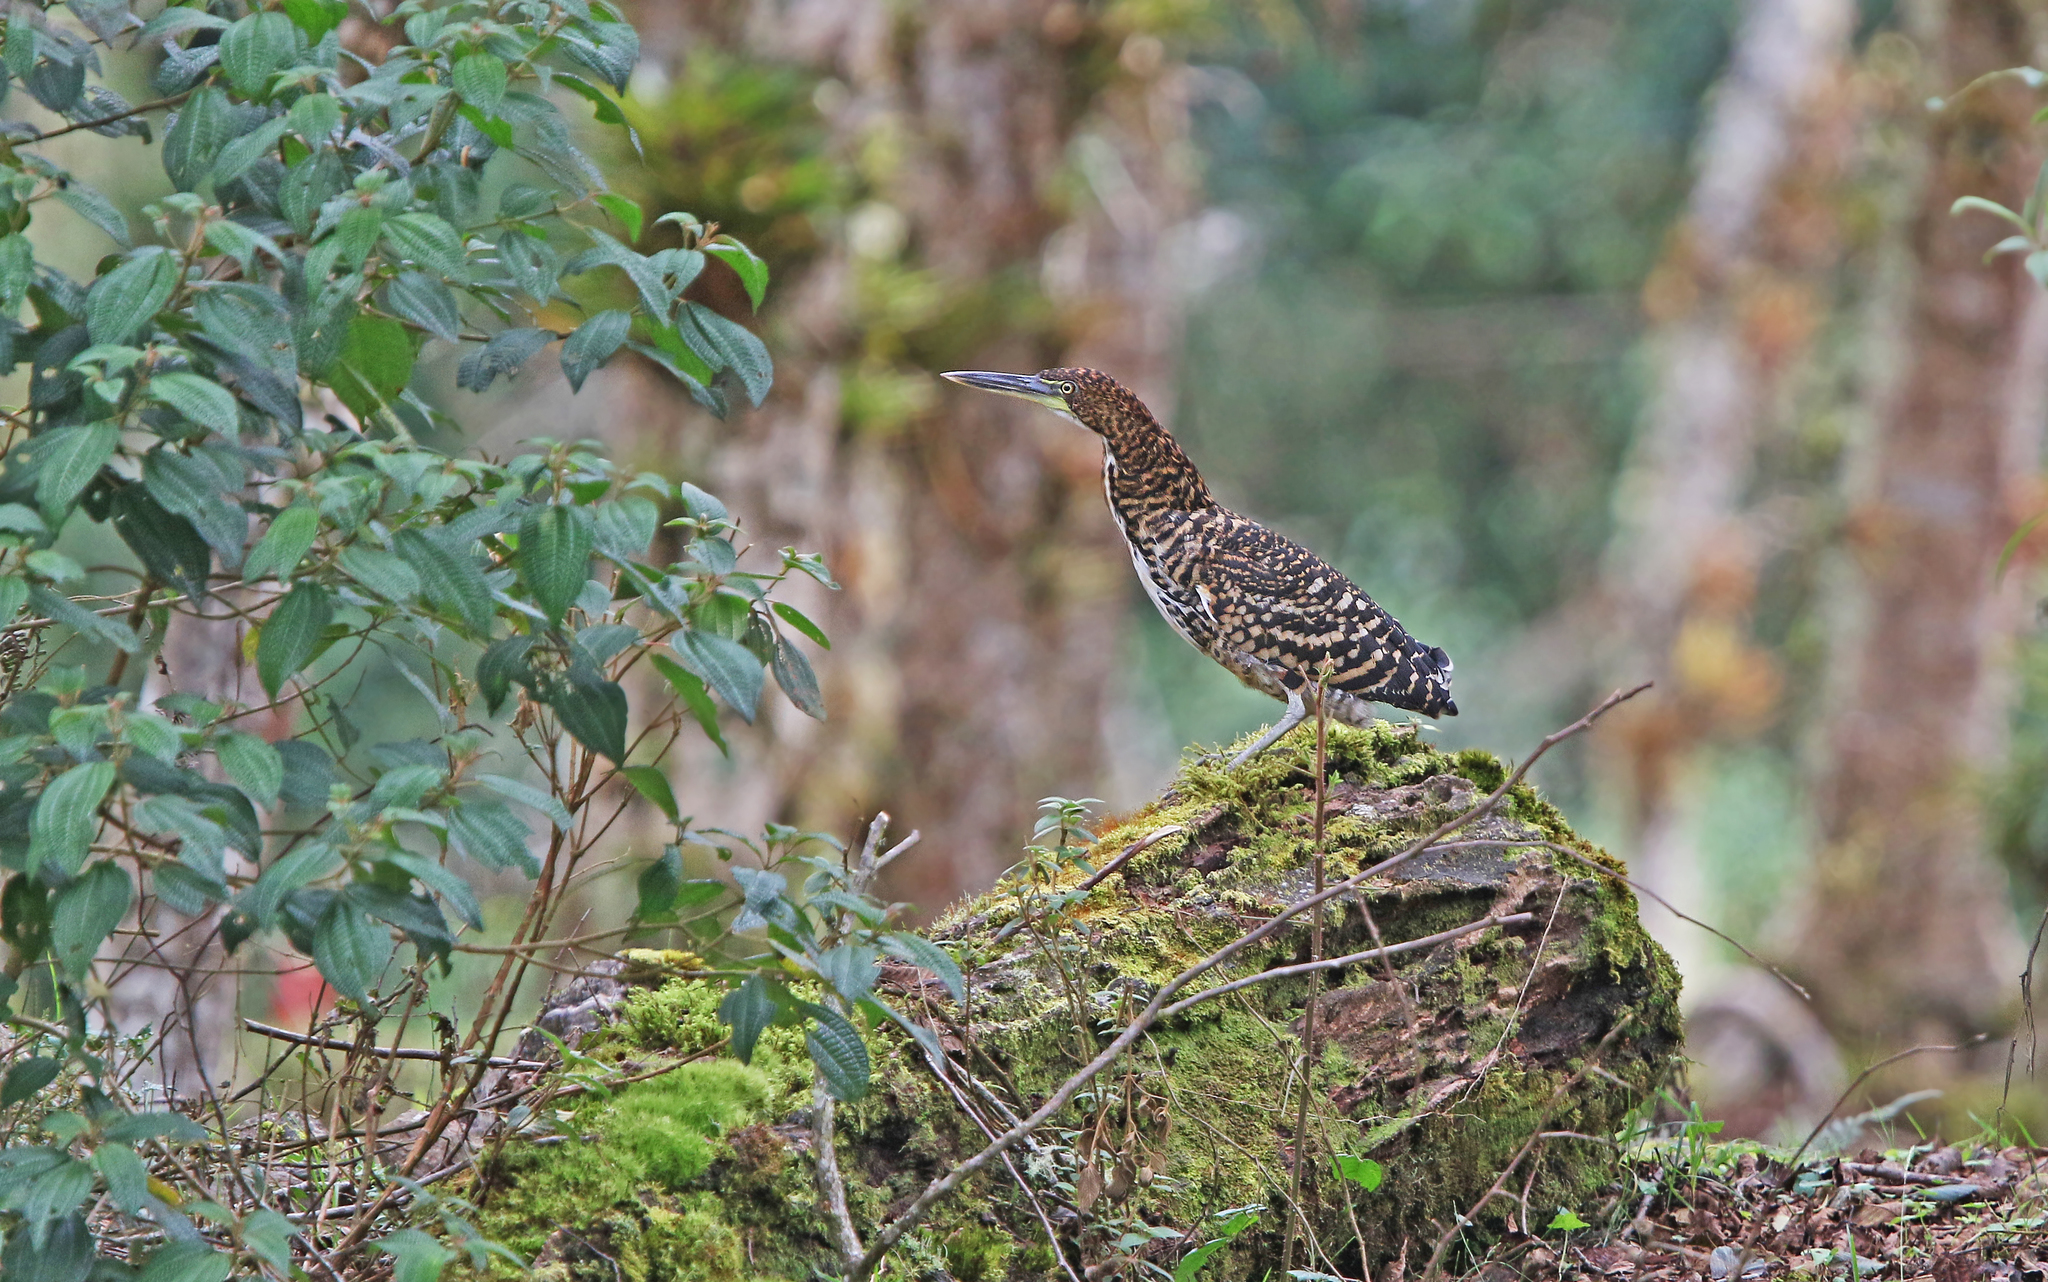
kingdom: Animalia
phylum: Chordata
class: Aves
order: Pelecaniformes
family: Ardeidae
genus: Tigrisoma
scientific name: Tigrisoma fasciatum
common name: Fasciated tiger-heron
